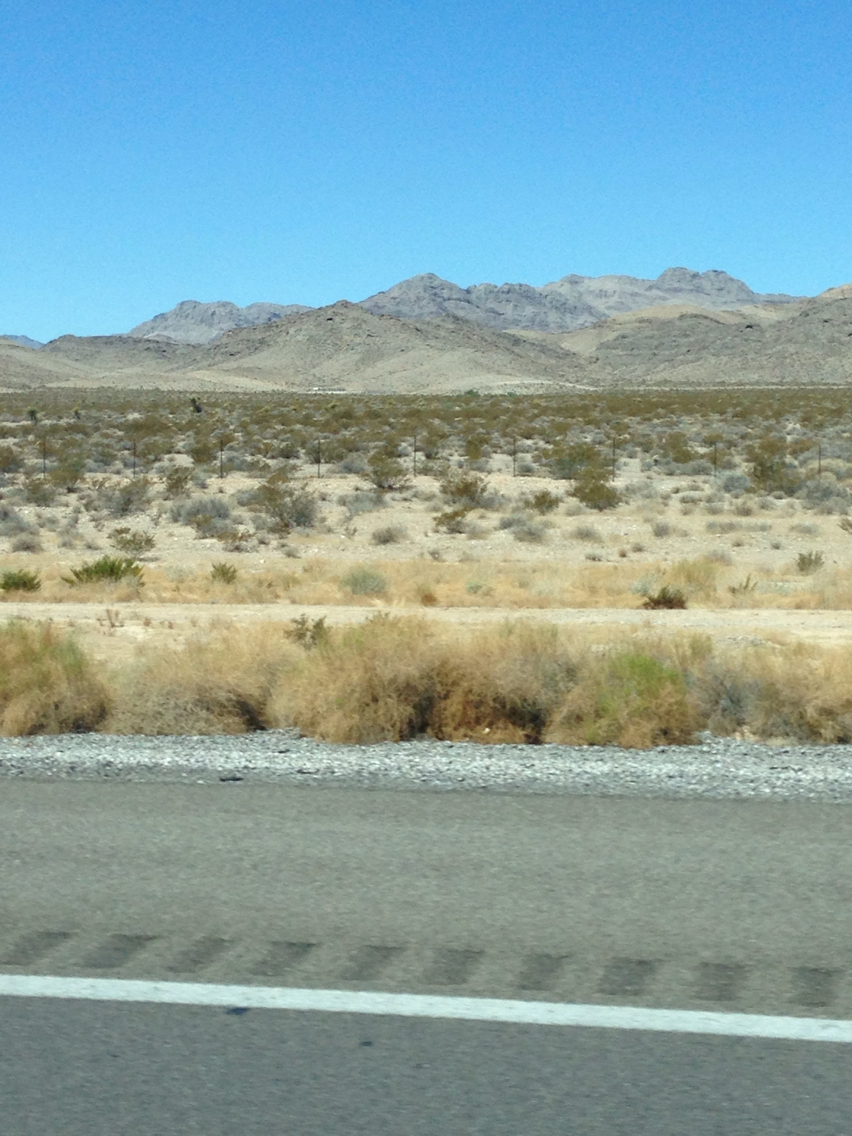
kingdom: Plantae
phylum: Tracheophyta
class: Magnoliopsida
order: Zygophyllales
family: Zygophyllaceae
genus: Larrea
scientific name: Larrea tridentata
